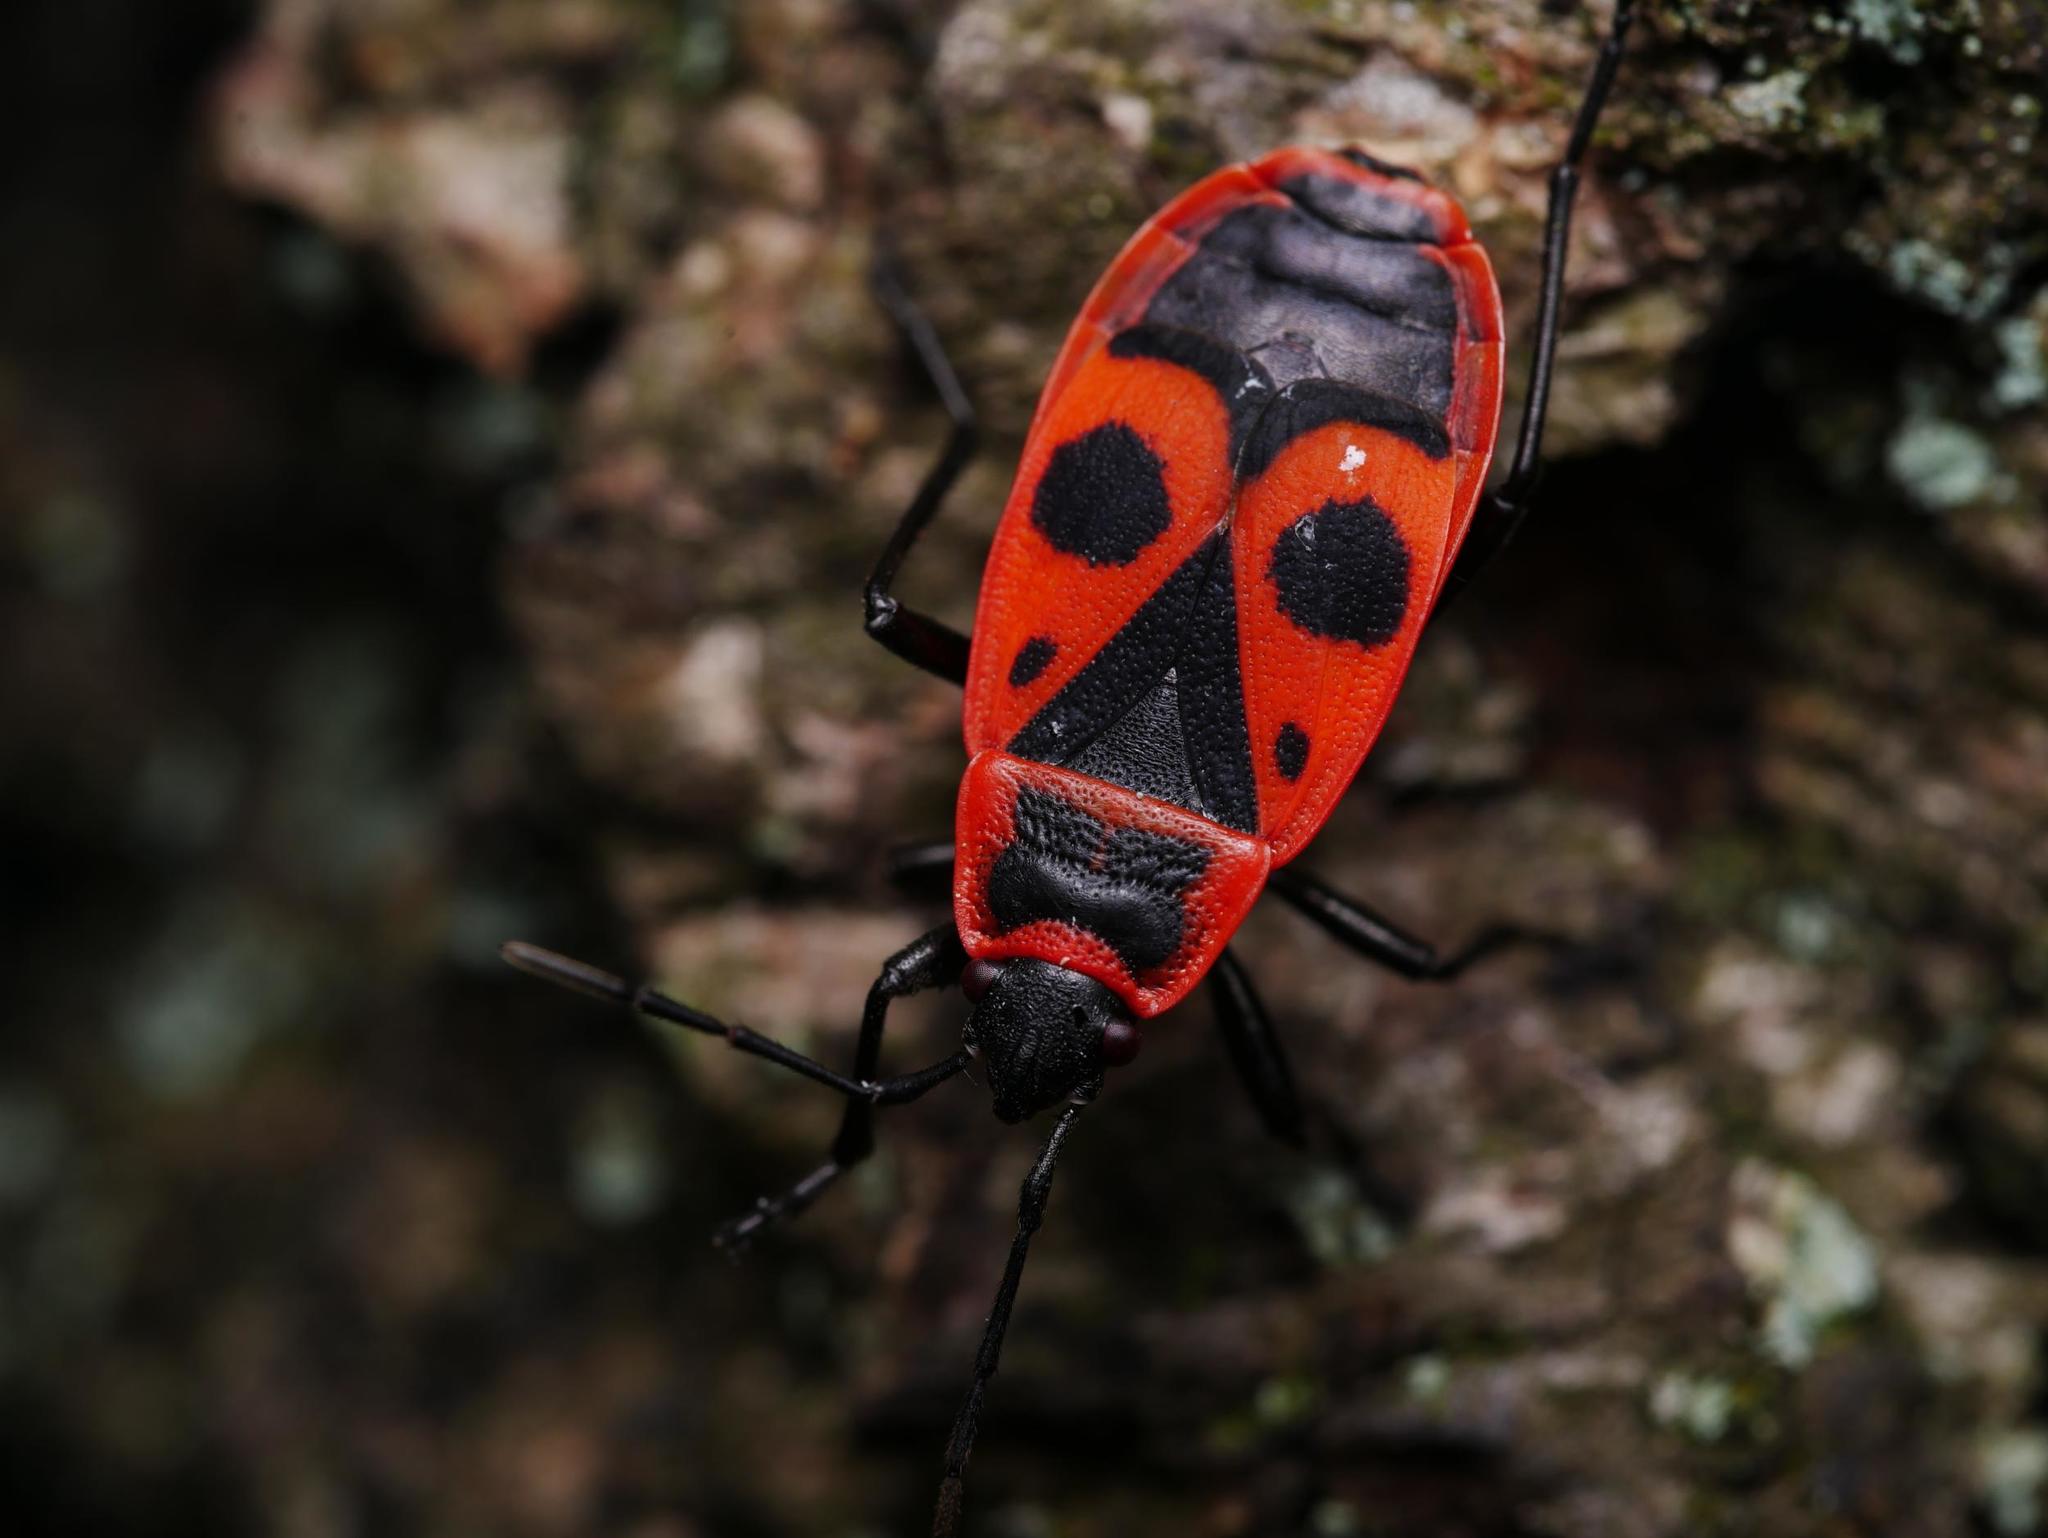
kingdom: Animalia
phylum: Arthropoda
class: Insecta
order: Hemiptera
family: Pyrrhocoridae
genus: Pyrrhocoris
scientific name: Pyrrhocoris apterus
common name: Firebug
